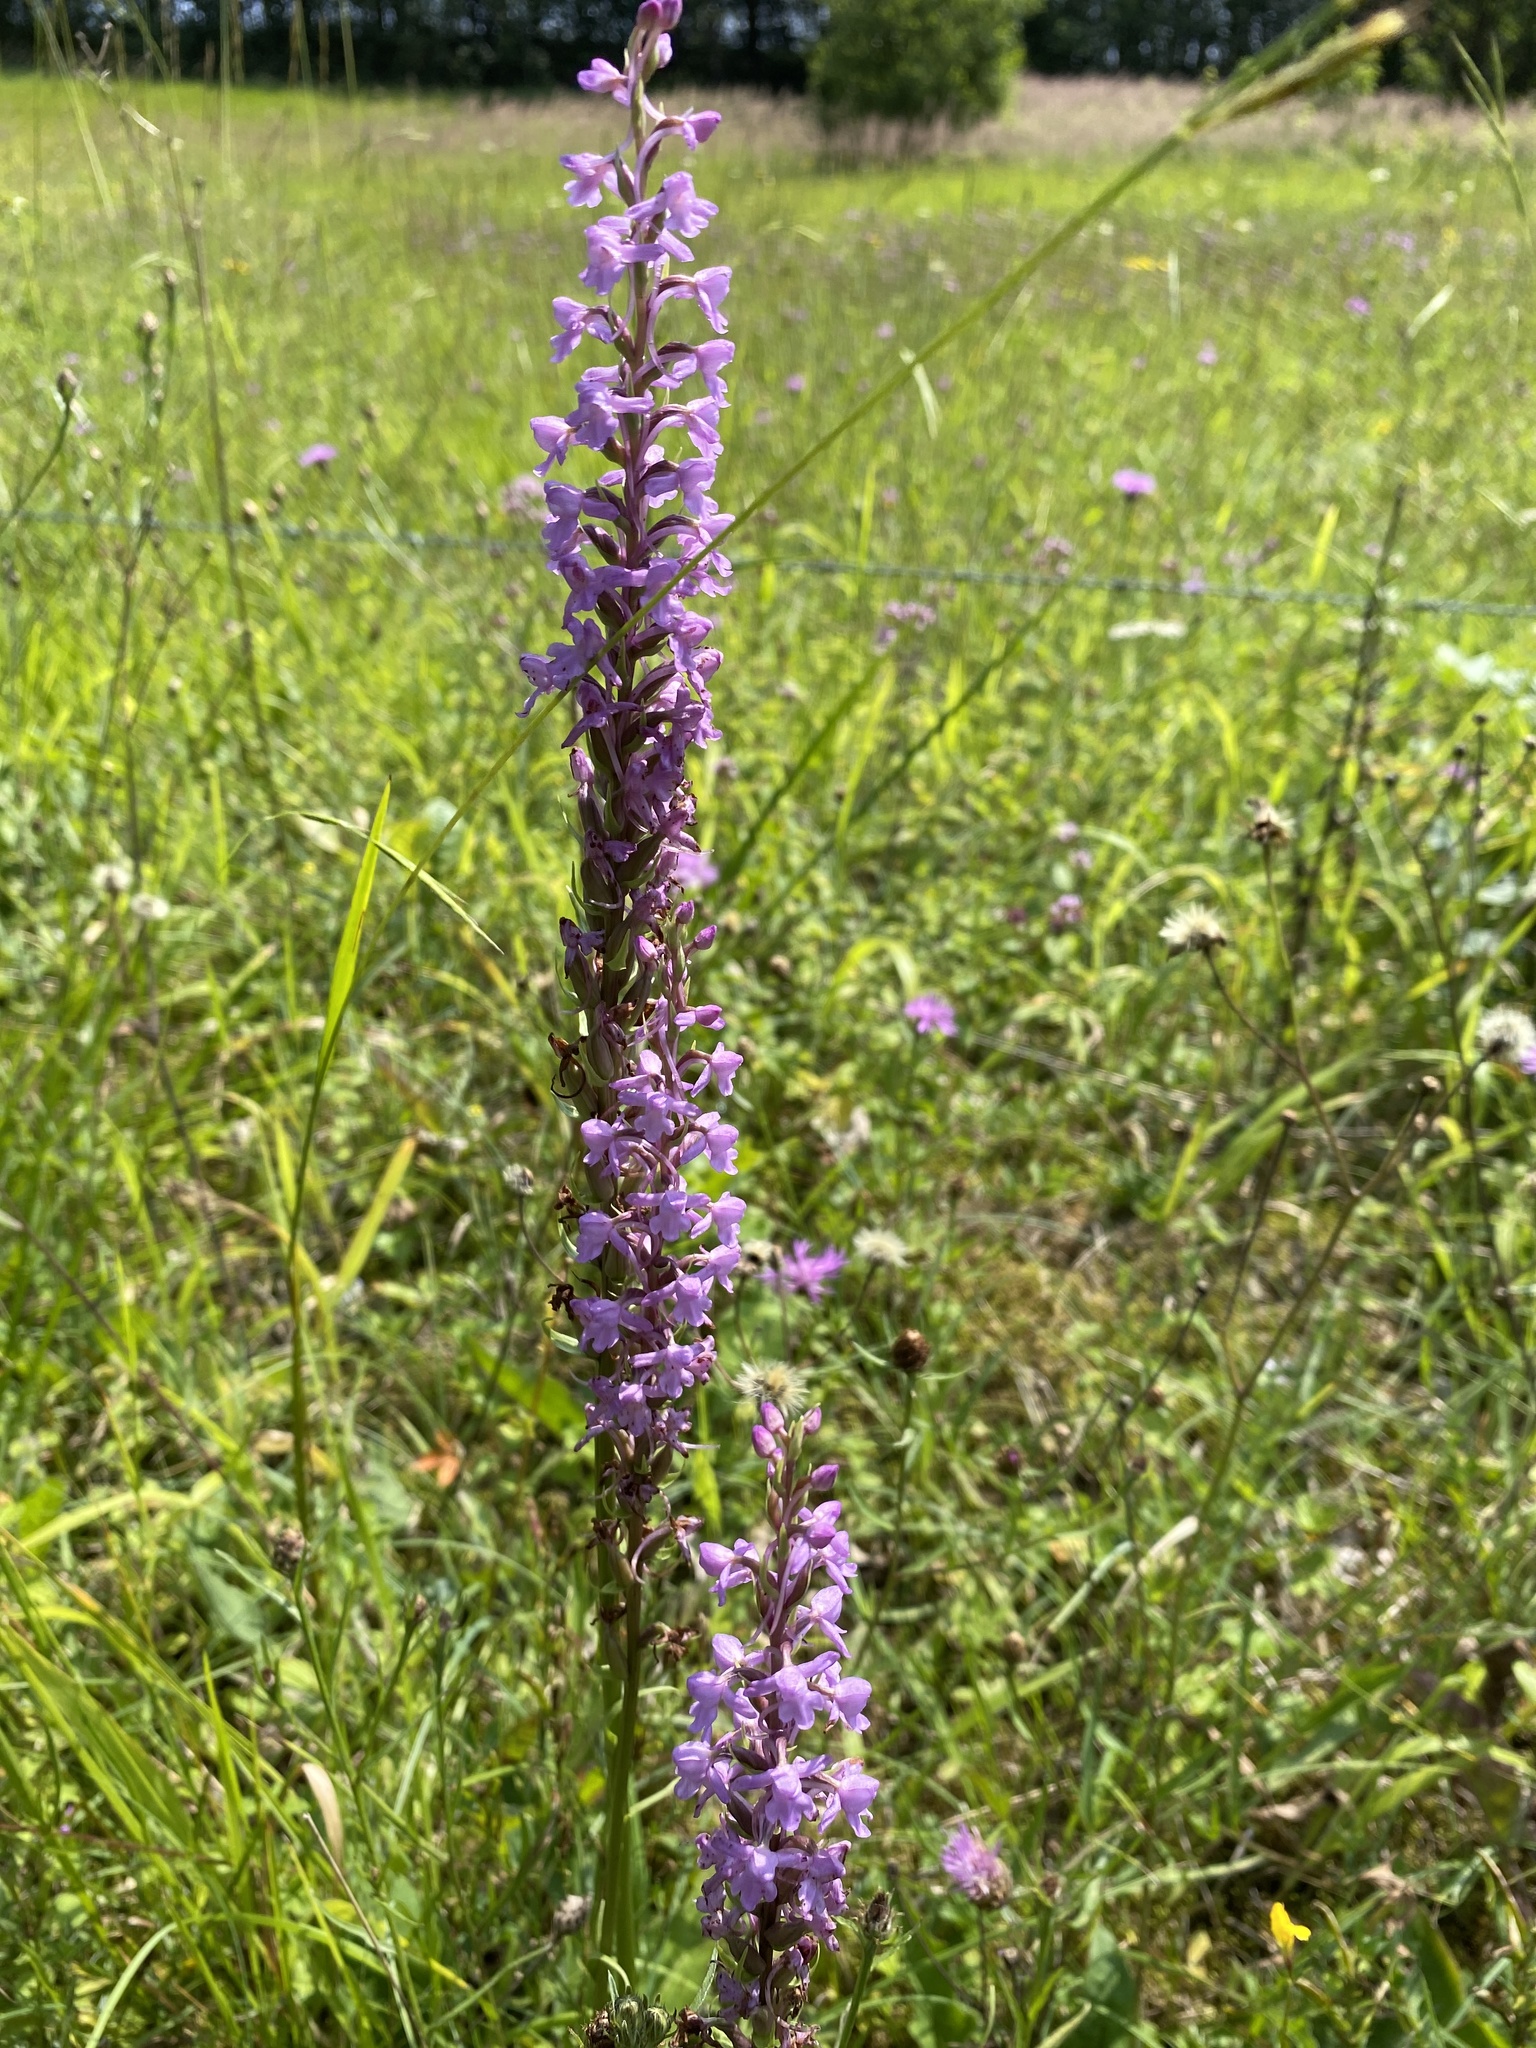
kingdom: Plantae
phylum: Tracheophyta
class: Liliopsida
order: Asparagales
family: Orchidaceae
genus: Gymnadenia
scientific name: Gymnadenia conopsea
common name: Fragrant orchid
